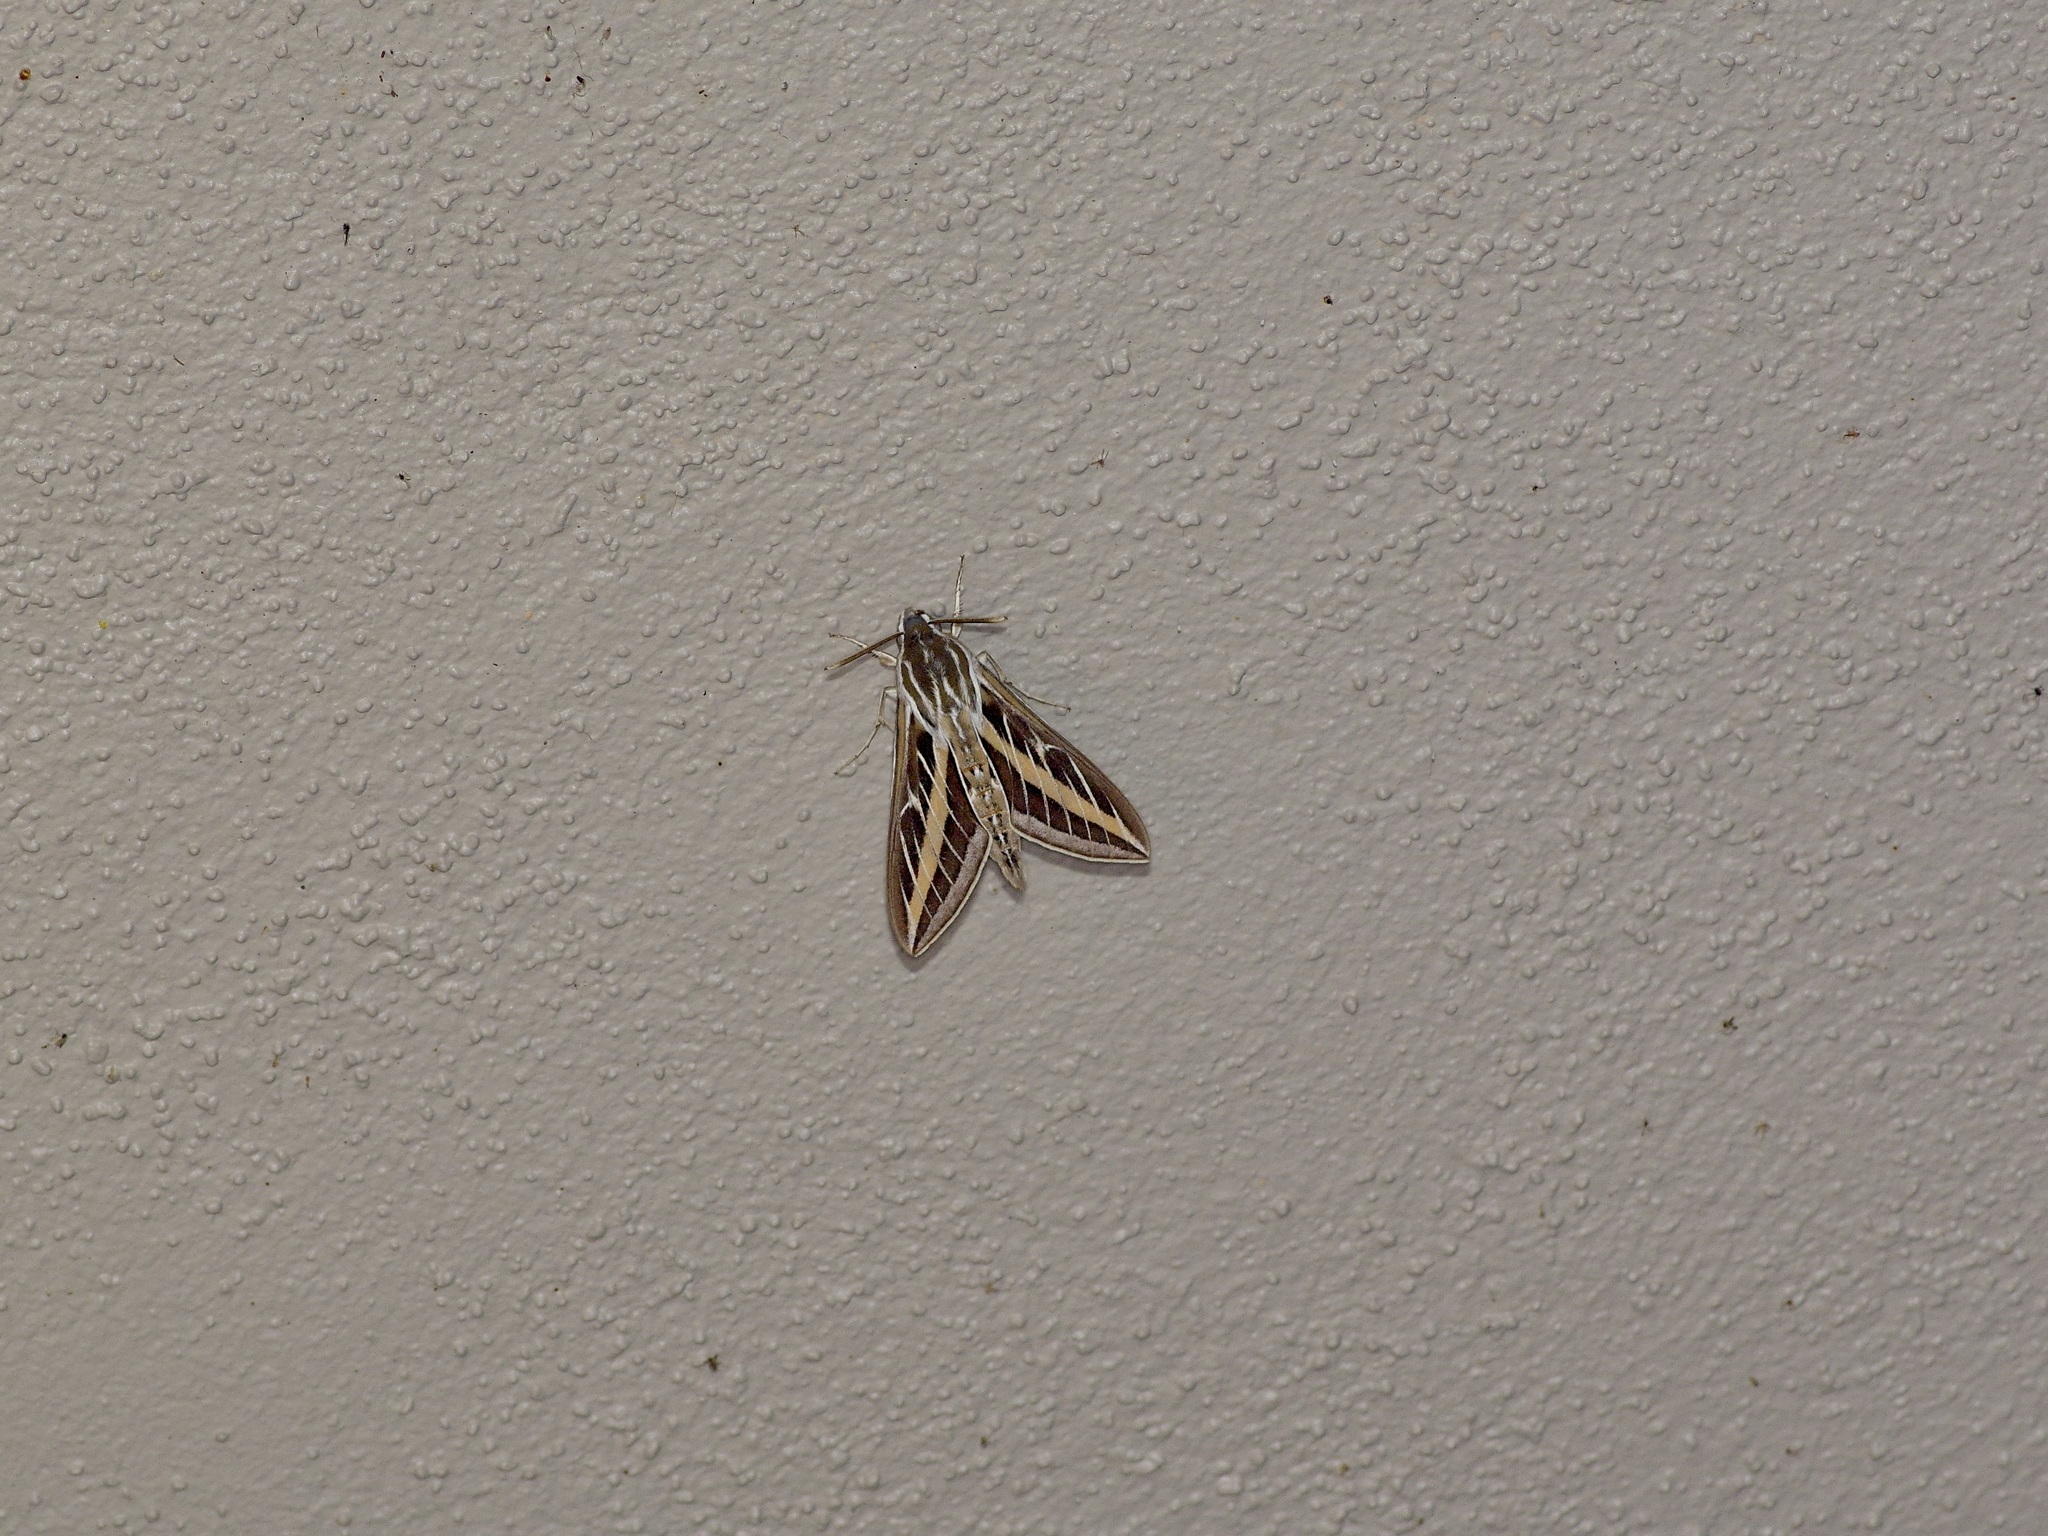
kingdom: Animalia
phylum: Arthropoda
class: Insecta
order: Lepidoptera
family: Sphingidae
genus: Hyles
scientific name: Hyles lineata
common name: White-lined sphinx
